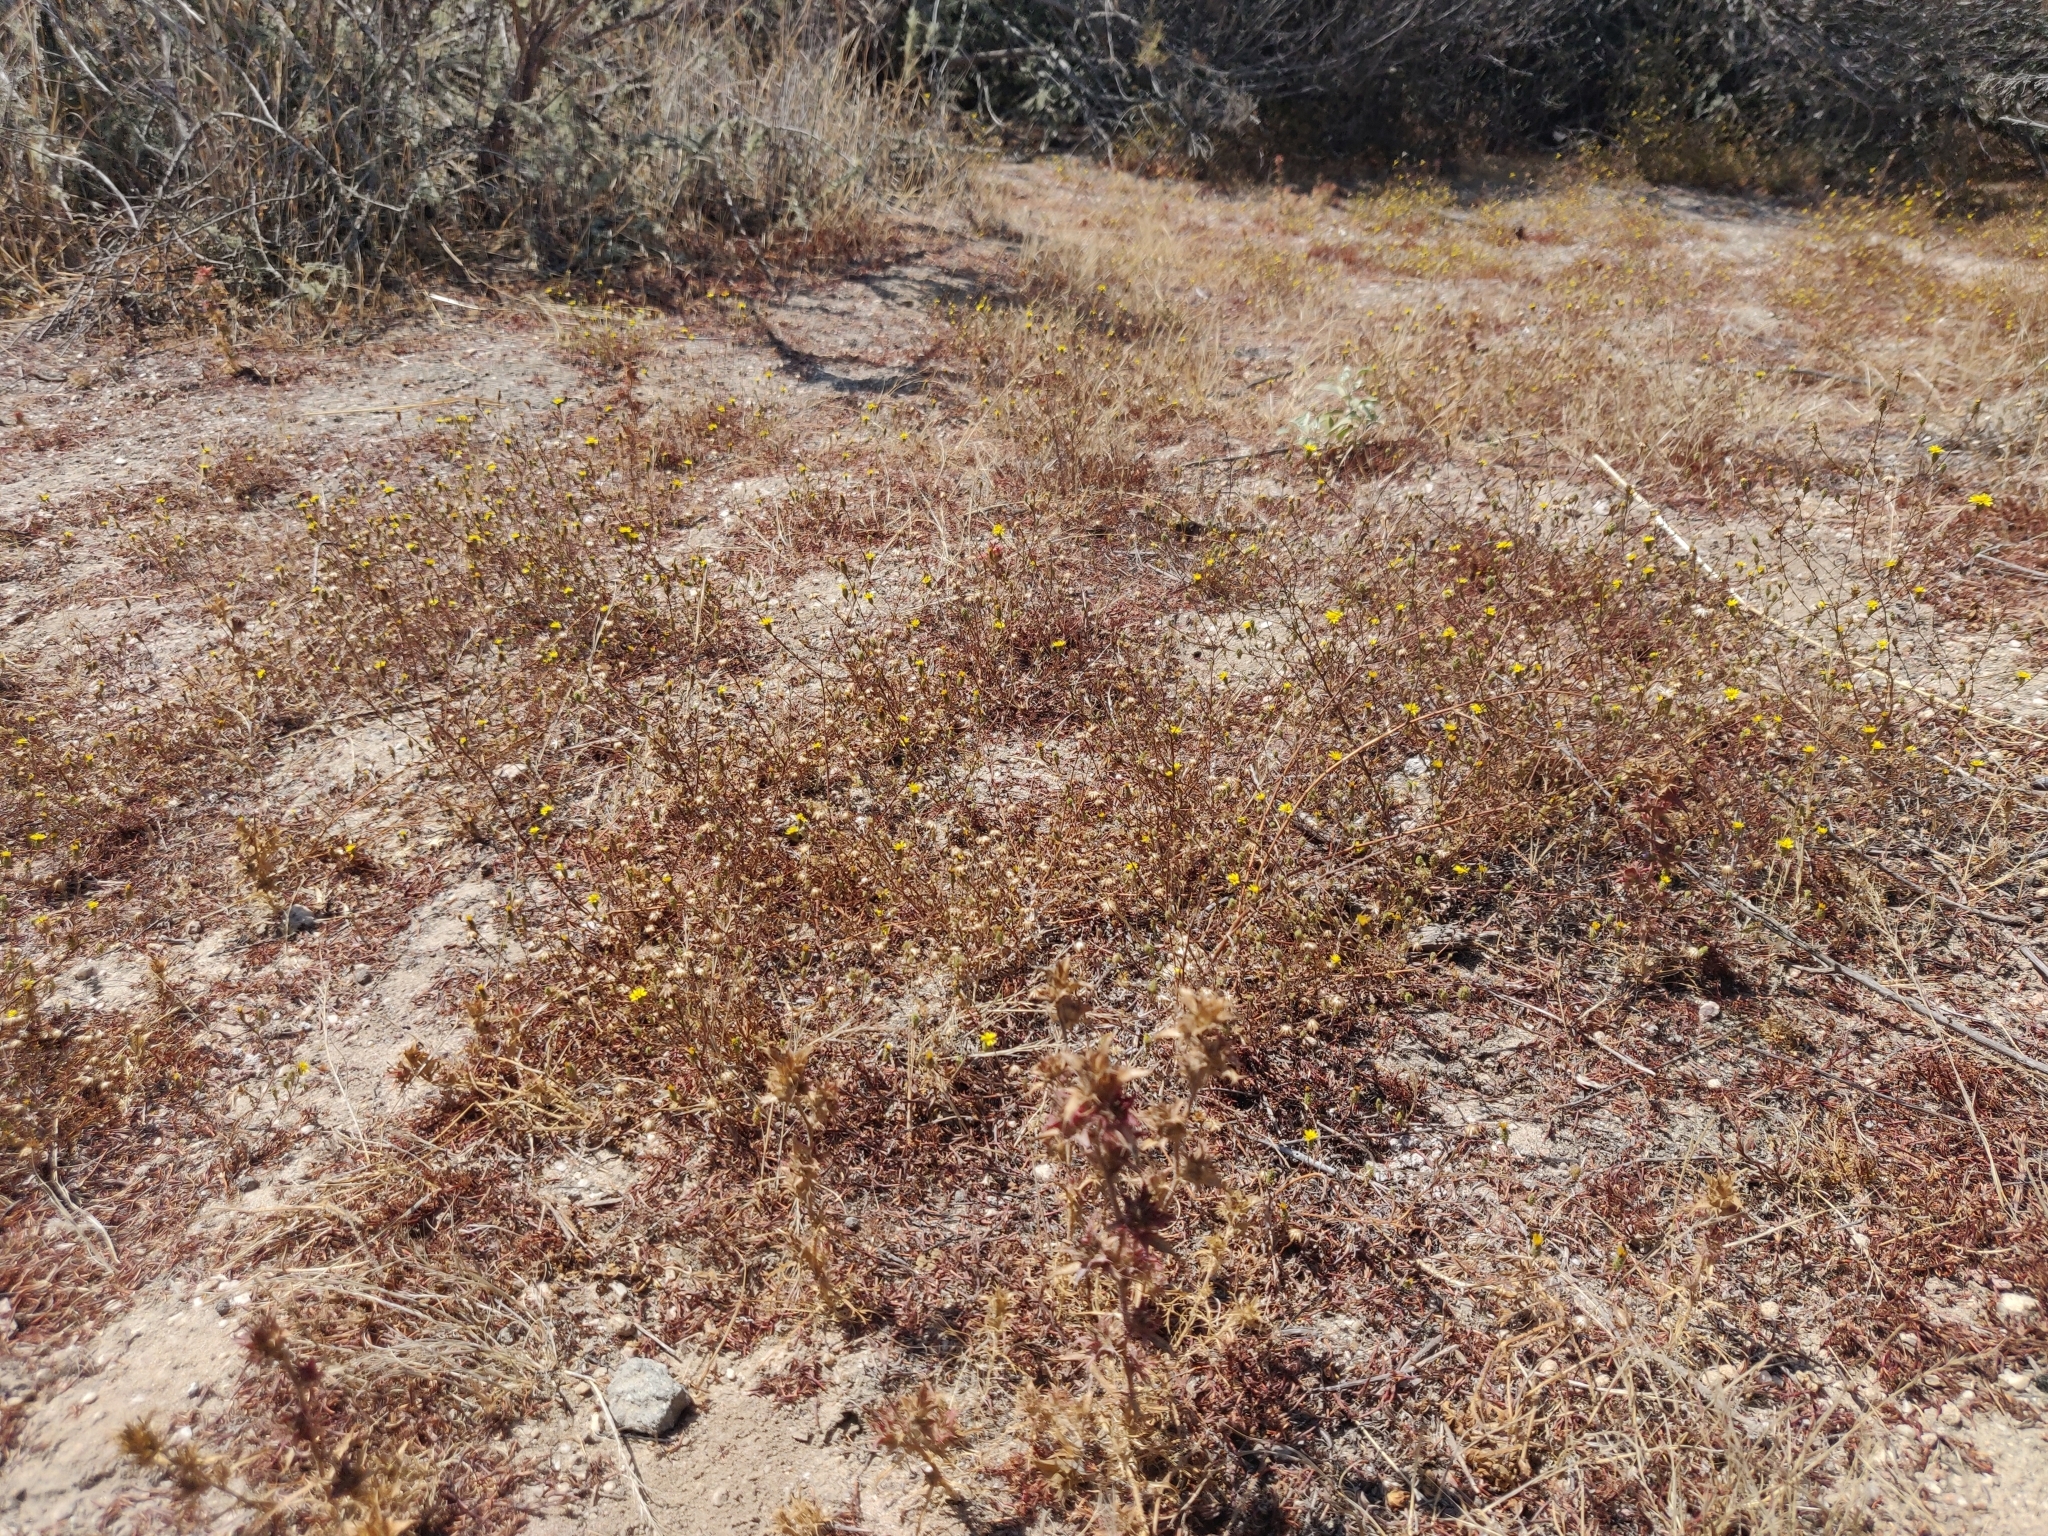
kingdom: Plantae
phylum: Tracheophyta
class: Magnoliopsida
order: Caryophyllales
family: Caryophyllaceae
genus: Cardionema
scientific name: Cardionema ramosissima
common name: Sandcarpet
